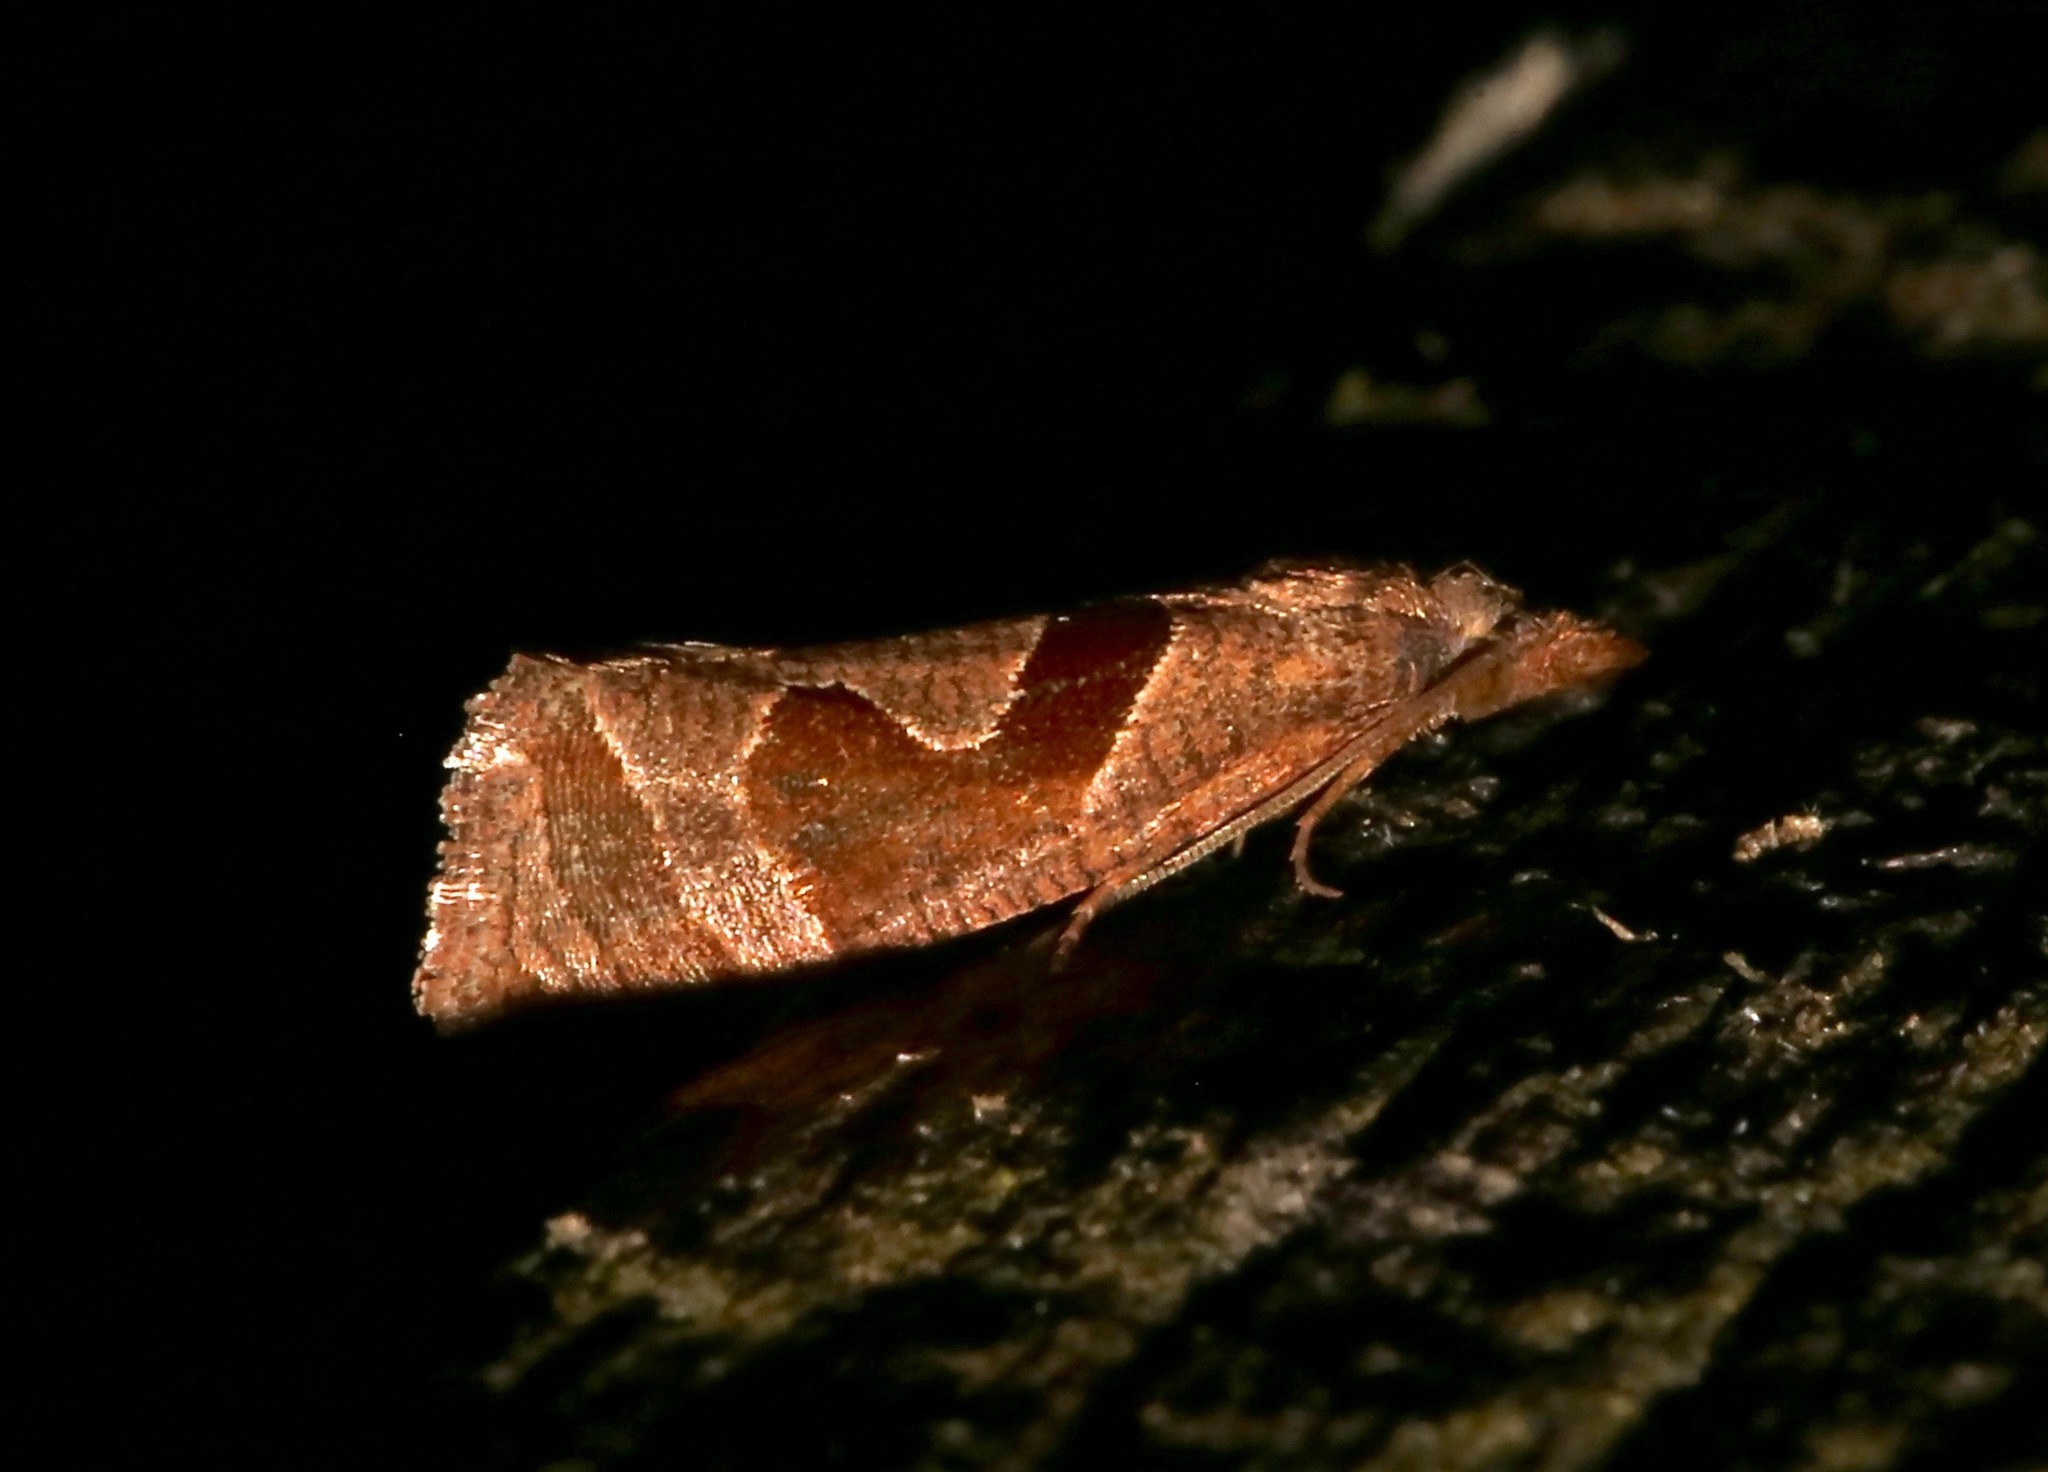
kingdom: Animalia
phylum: Arthropoda
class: Insecta
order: Lepidoptera
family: Tortricidae
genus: Pelochrista
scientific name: Pelochrista similiana
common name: Similar eucosma
